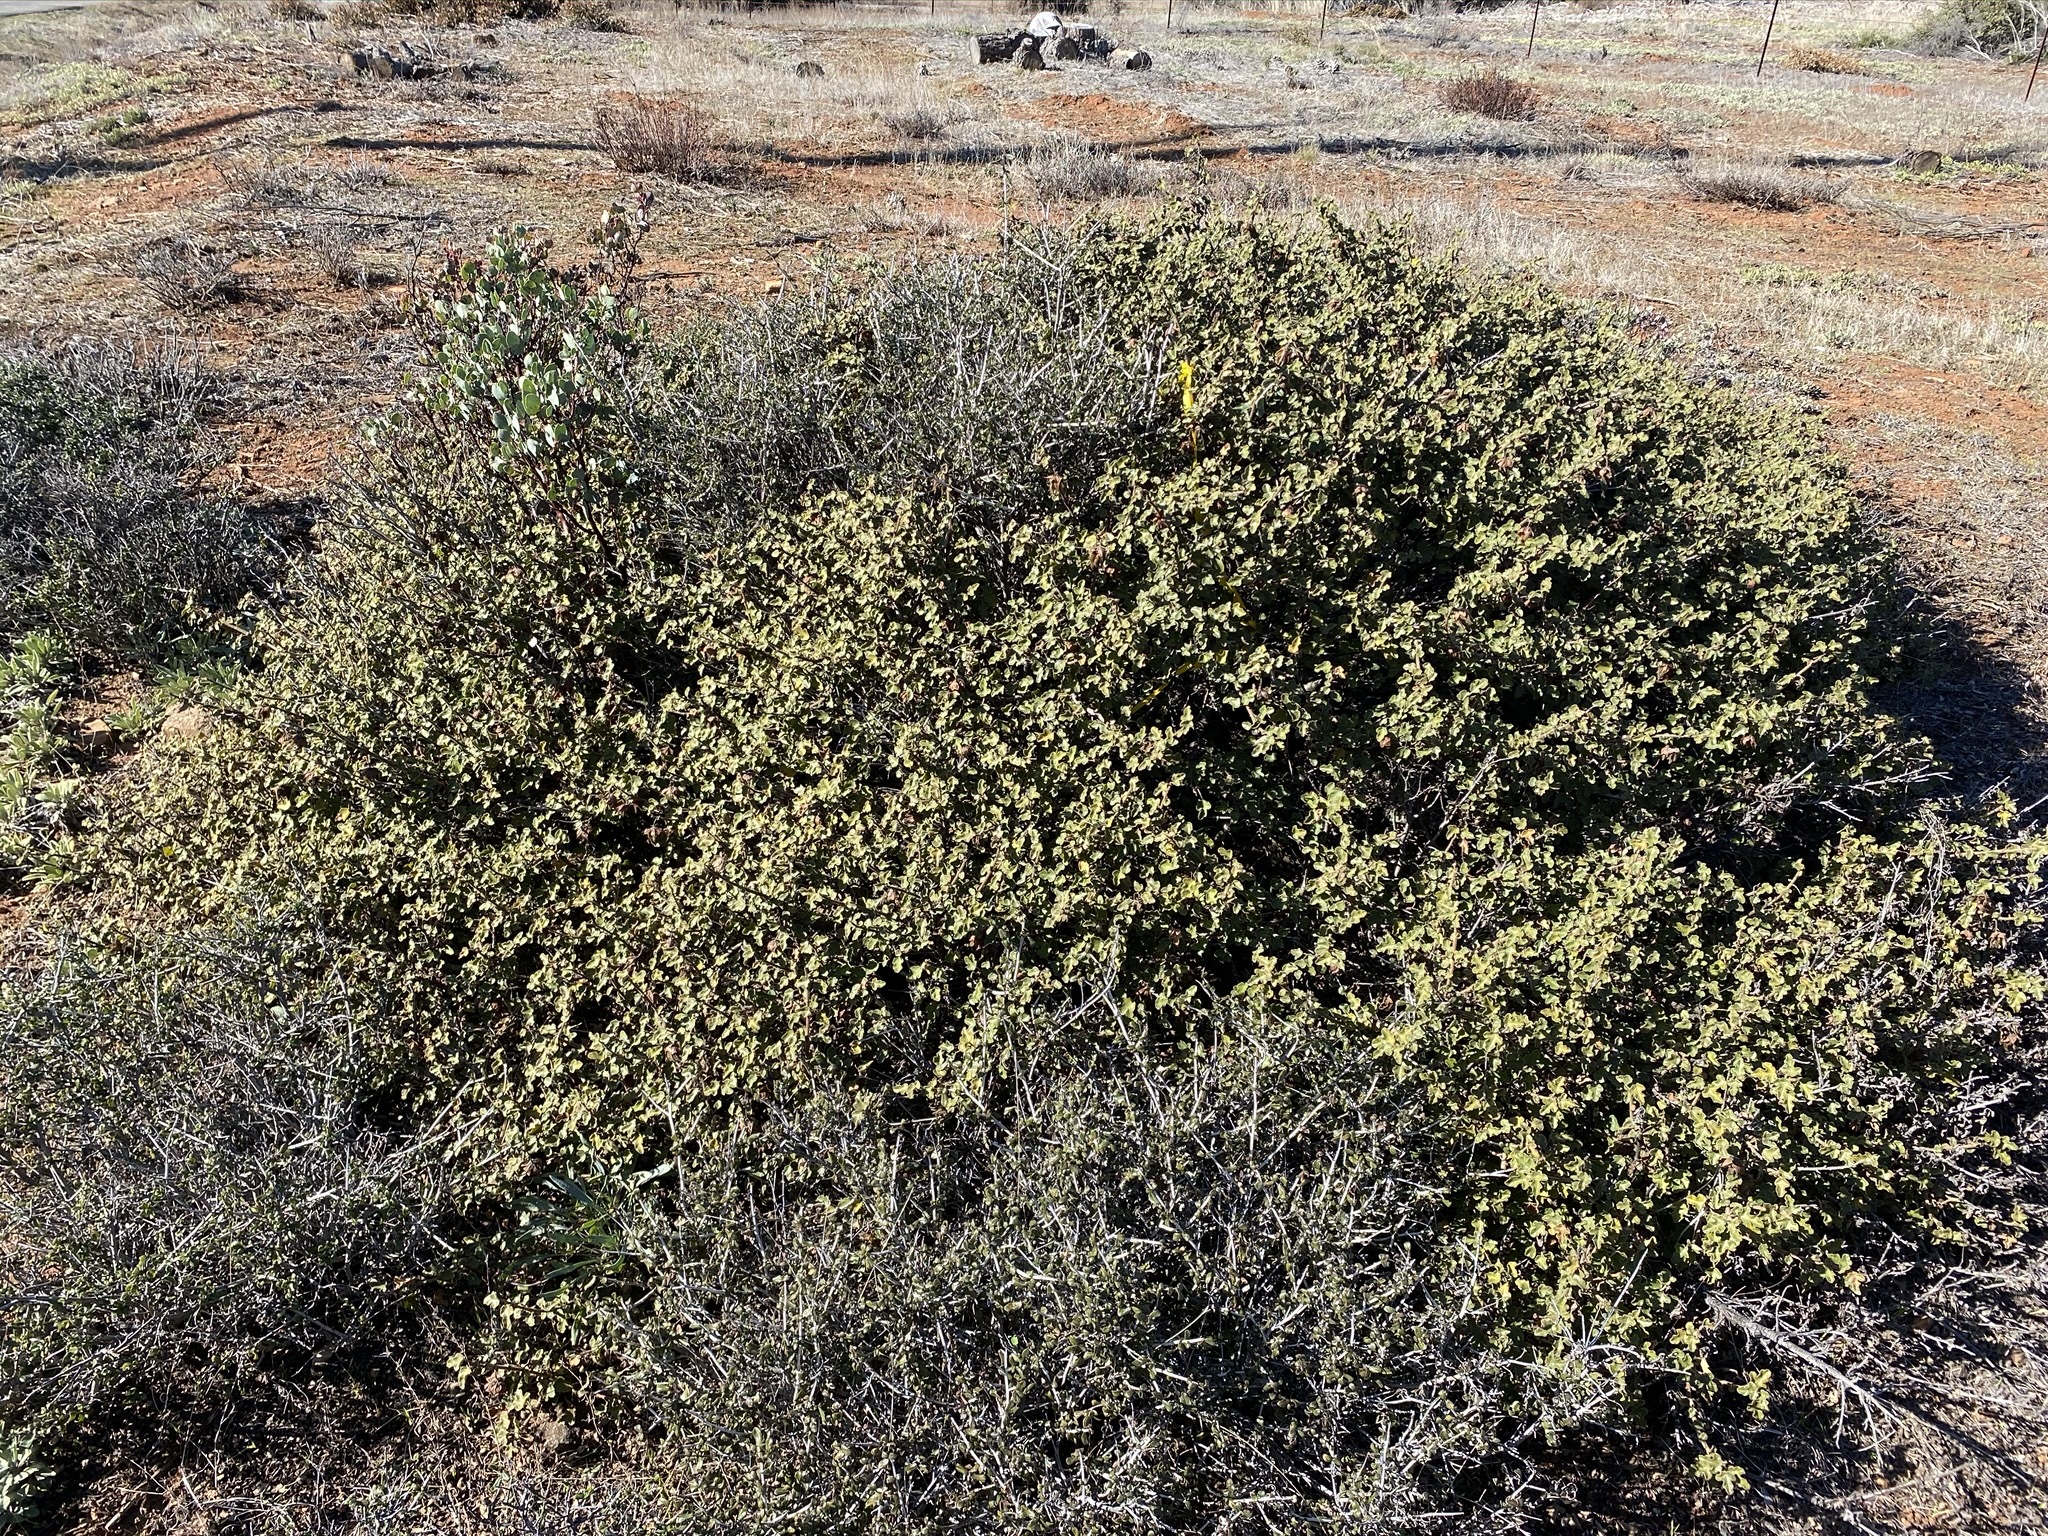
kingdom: Plantae
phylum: Tracheophyta
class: Magnoliopsida
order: Malvales
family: Malvaceae
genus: Fremontodendron
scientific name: Fremontodendron decumbens
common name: Pine hill flannelbush
